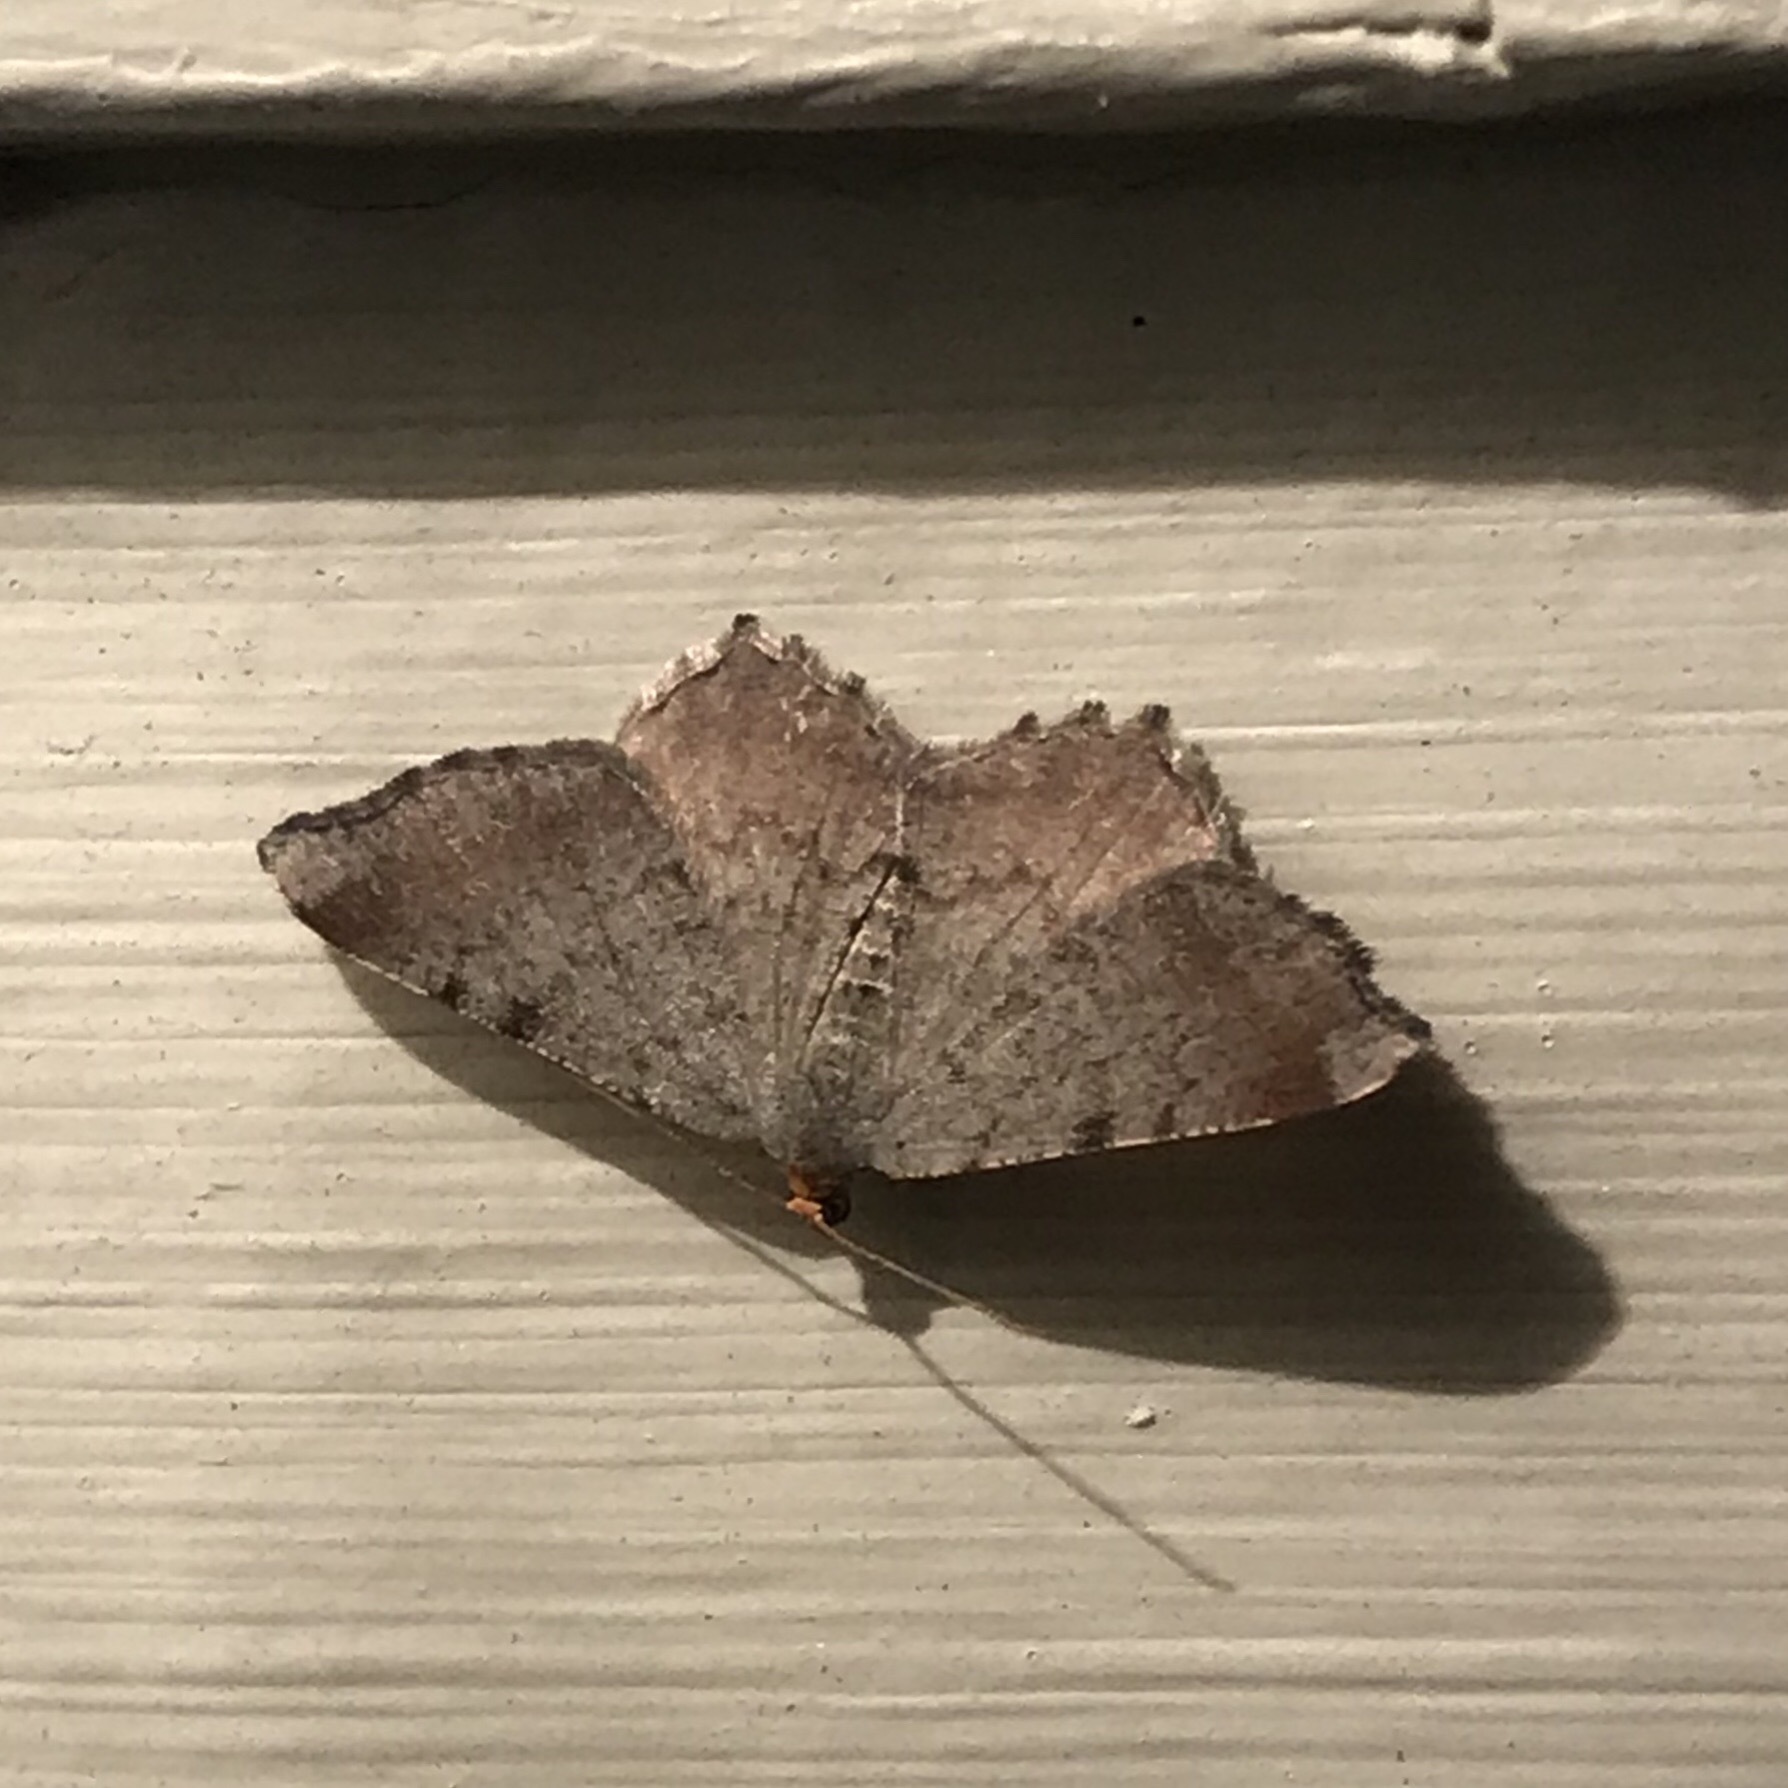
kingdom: Animalia
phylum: Arthropoda
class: Insecta
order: Lepidoptera
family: Geometridae
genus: Macaria
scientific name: Macaria minorata
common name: Minor angle moth
